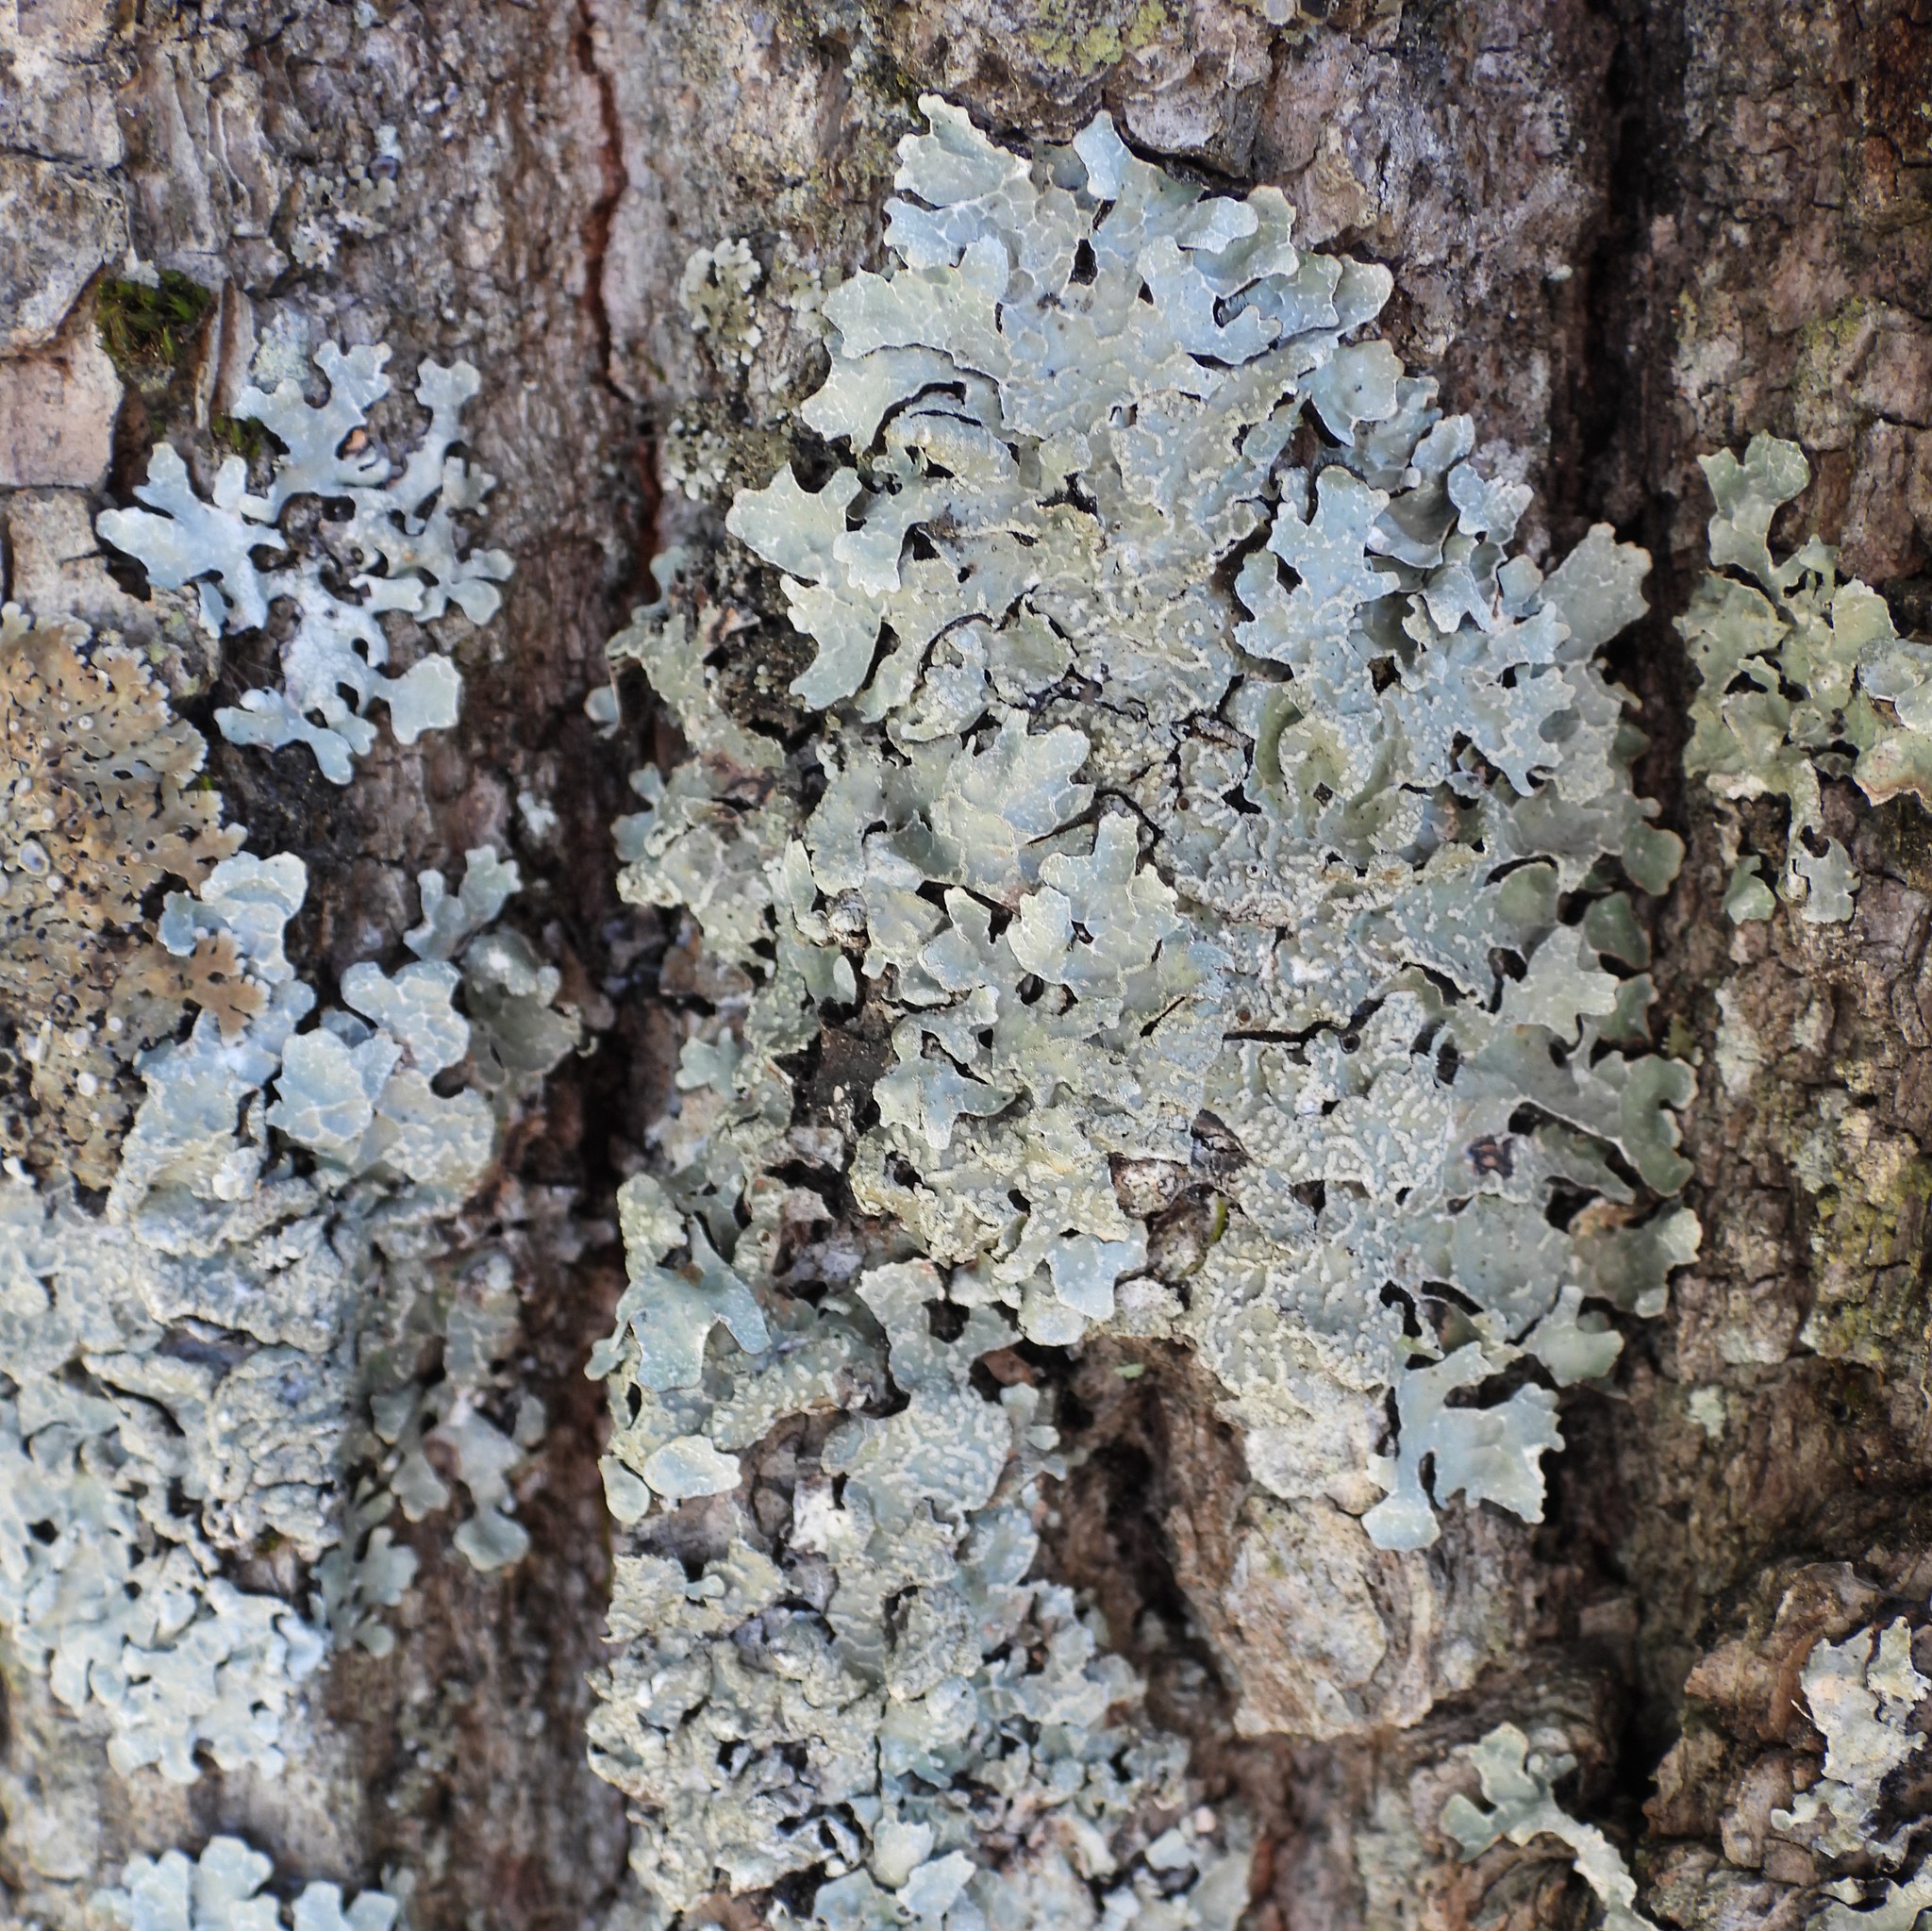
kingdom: Fungi
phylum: Ascomycota
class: Lecanoromycetes
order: Lecanorales
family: Parmeliaceae
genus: Parmelia
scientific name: Parmelia sulcata
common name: Netted shield lichen
